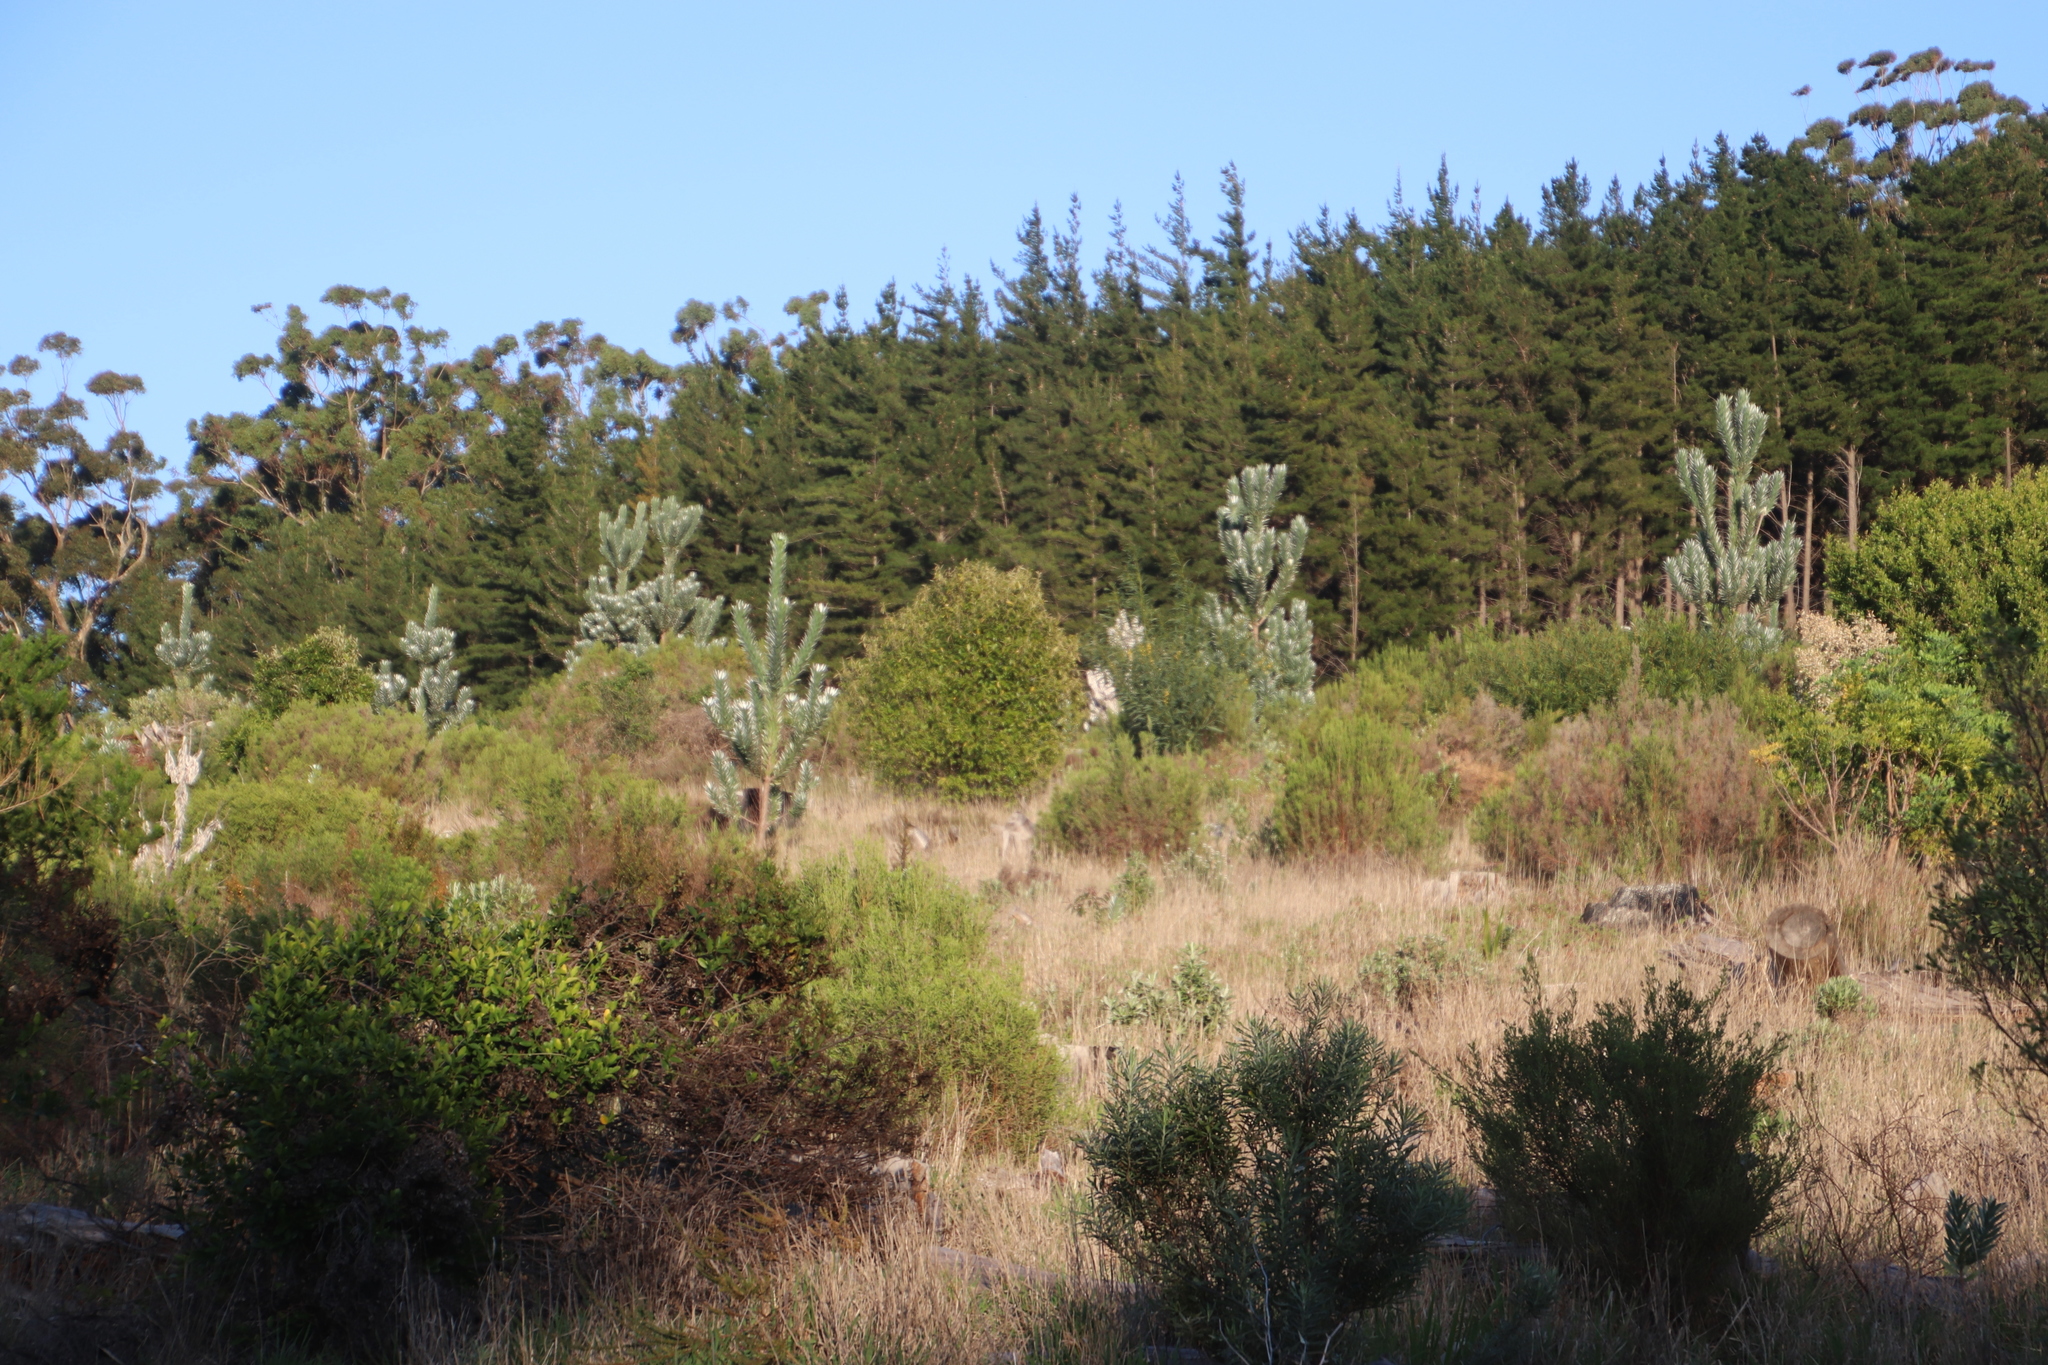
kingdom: Plantae
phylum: Tracheophyta
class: Magnoliopsida
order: Proteales
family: Proteaceae
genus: Leucadendron
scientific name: Leucadendron argenteum
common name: Cape silver tree
